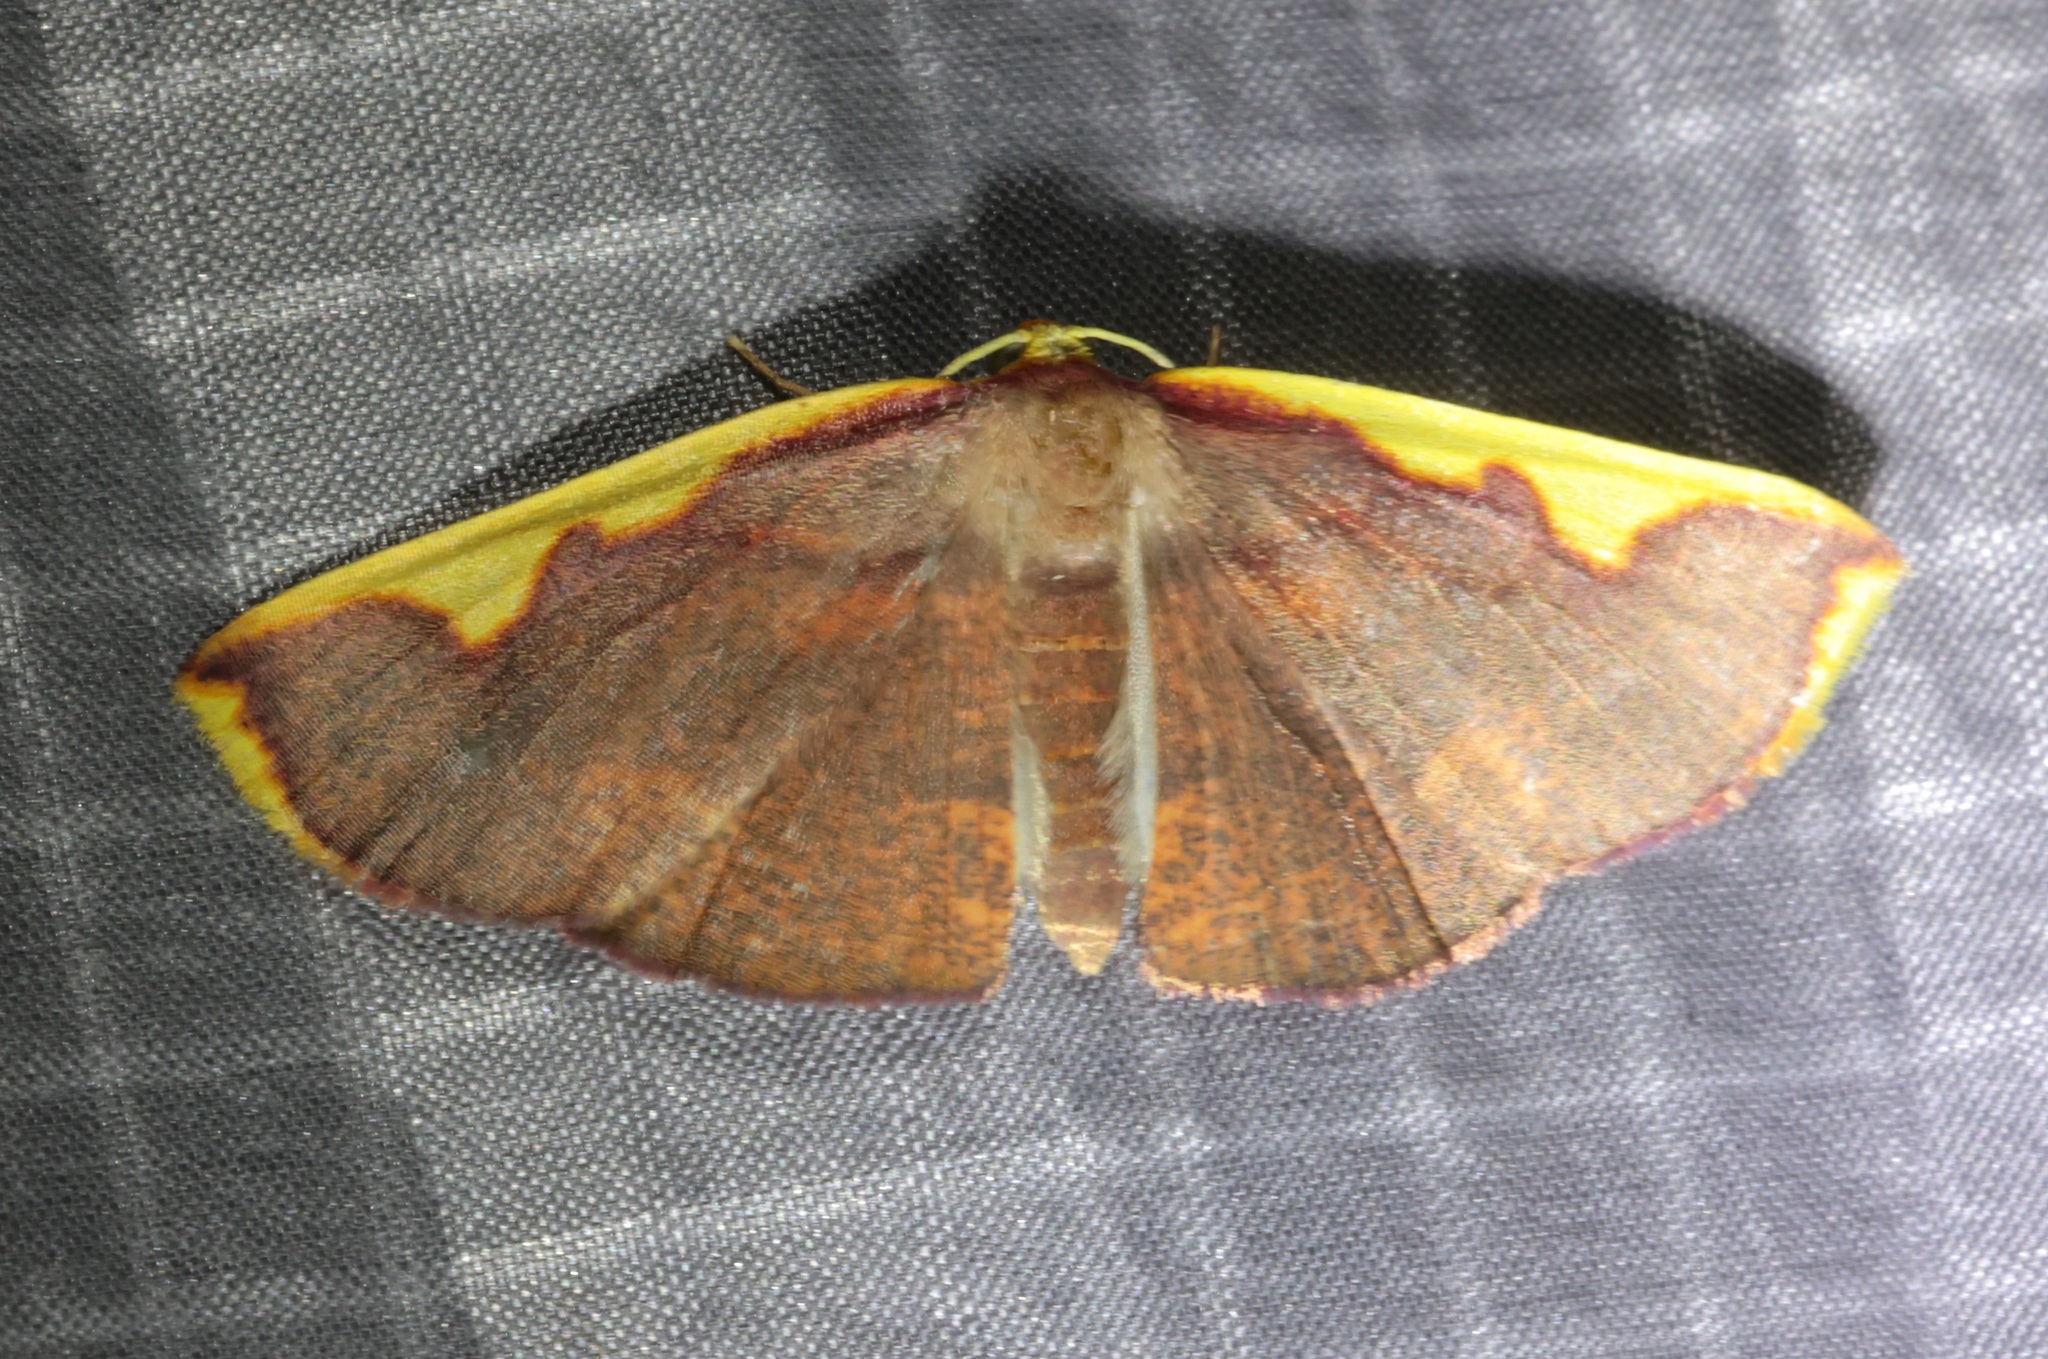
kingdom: Animalia
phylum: Arthropoda
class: Insecta
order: Lepidoptera
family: Geometridae
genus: Nothomiza
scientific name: Nothomiza flavicosta
